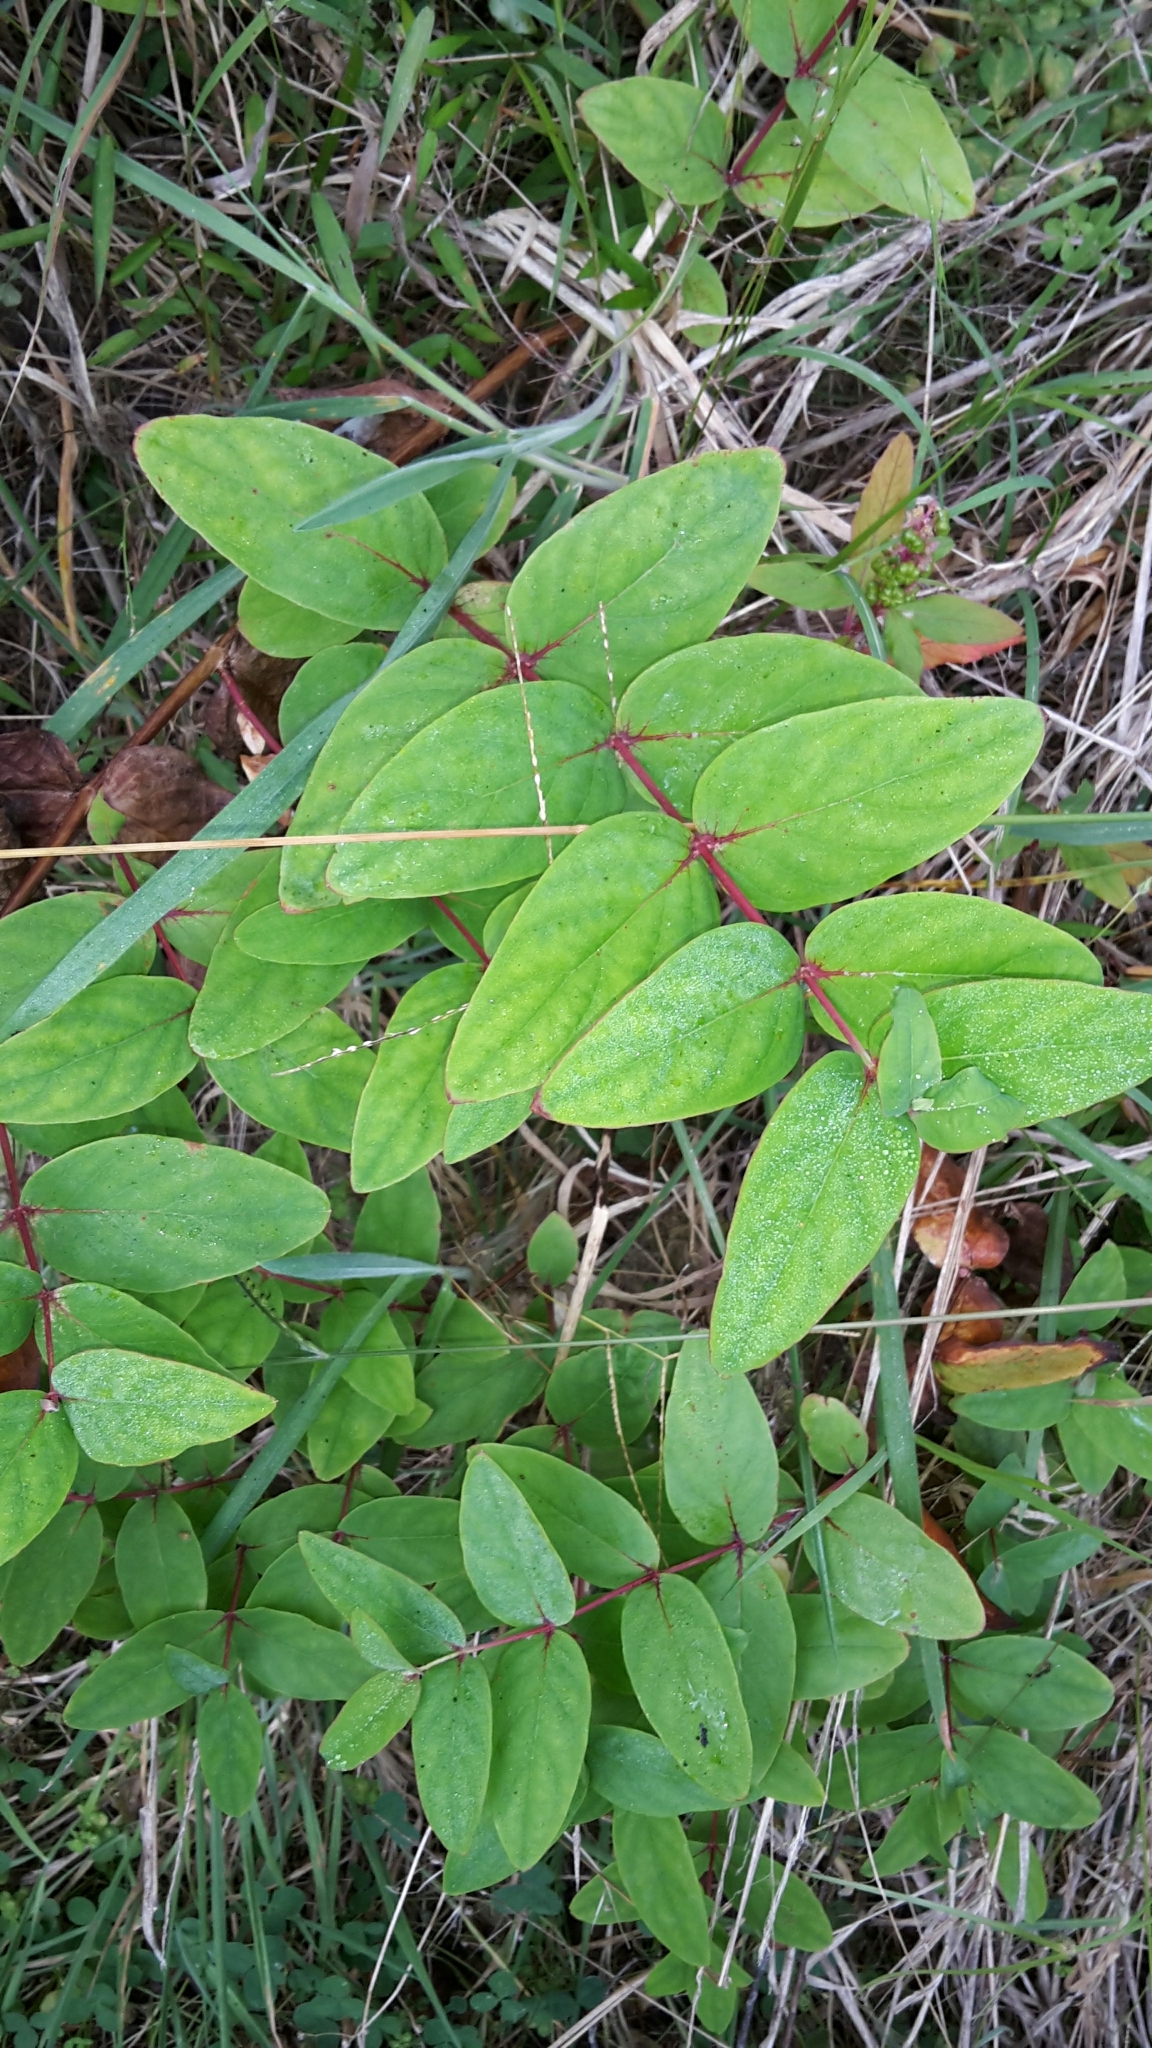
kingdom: Plantae
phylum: Tracheophyta
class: Magnoliopsida
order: Malpighiales
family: Hypericaceae
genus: Hypericum
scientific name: Hypericum androsaemum
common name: Sweet-amber
